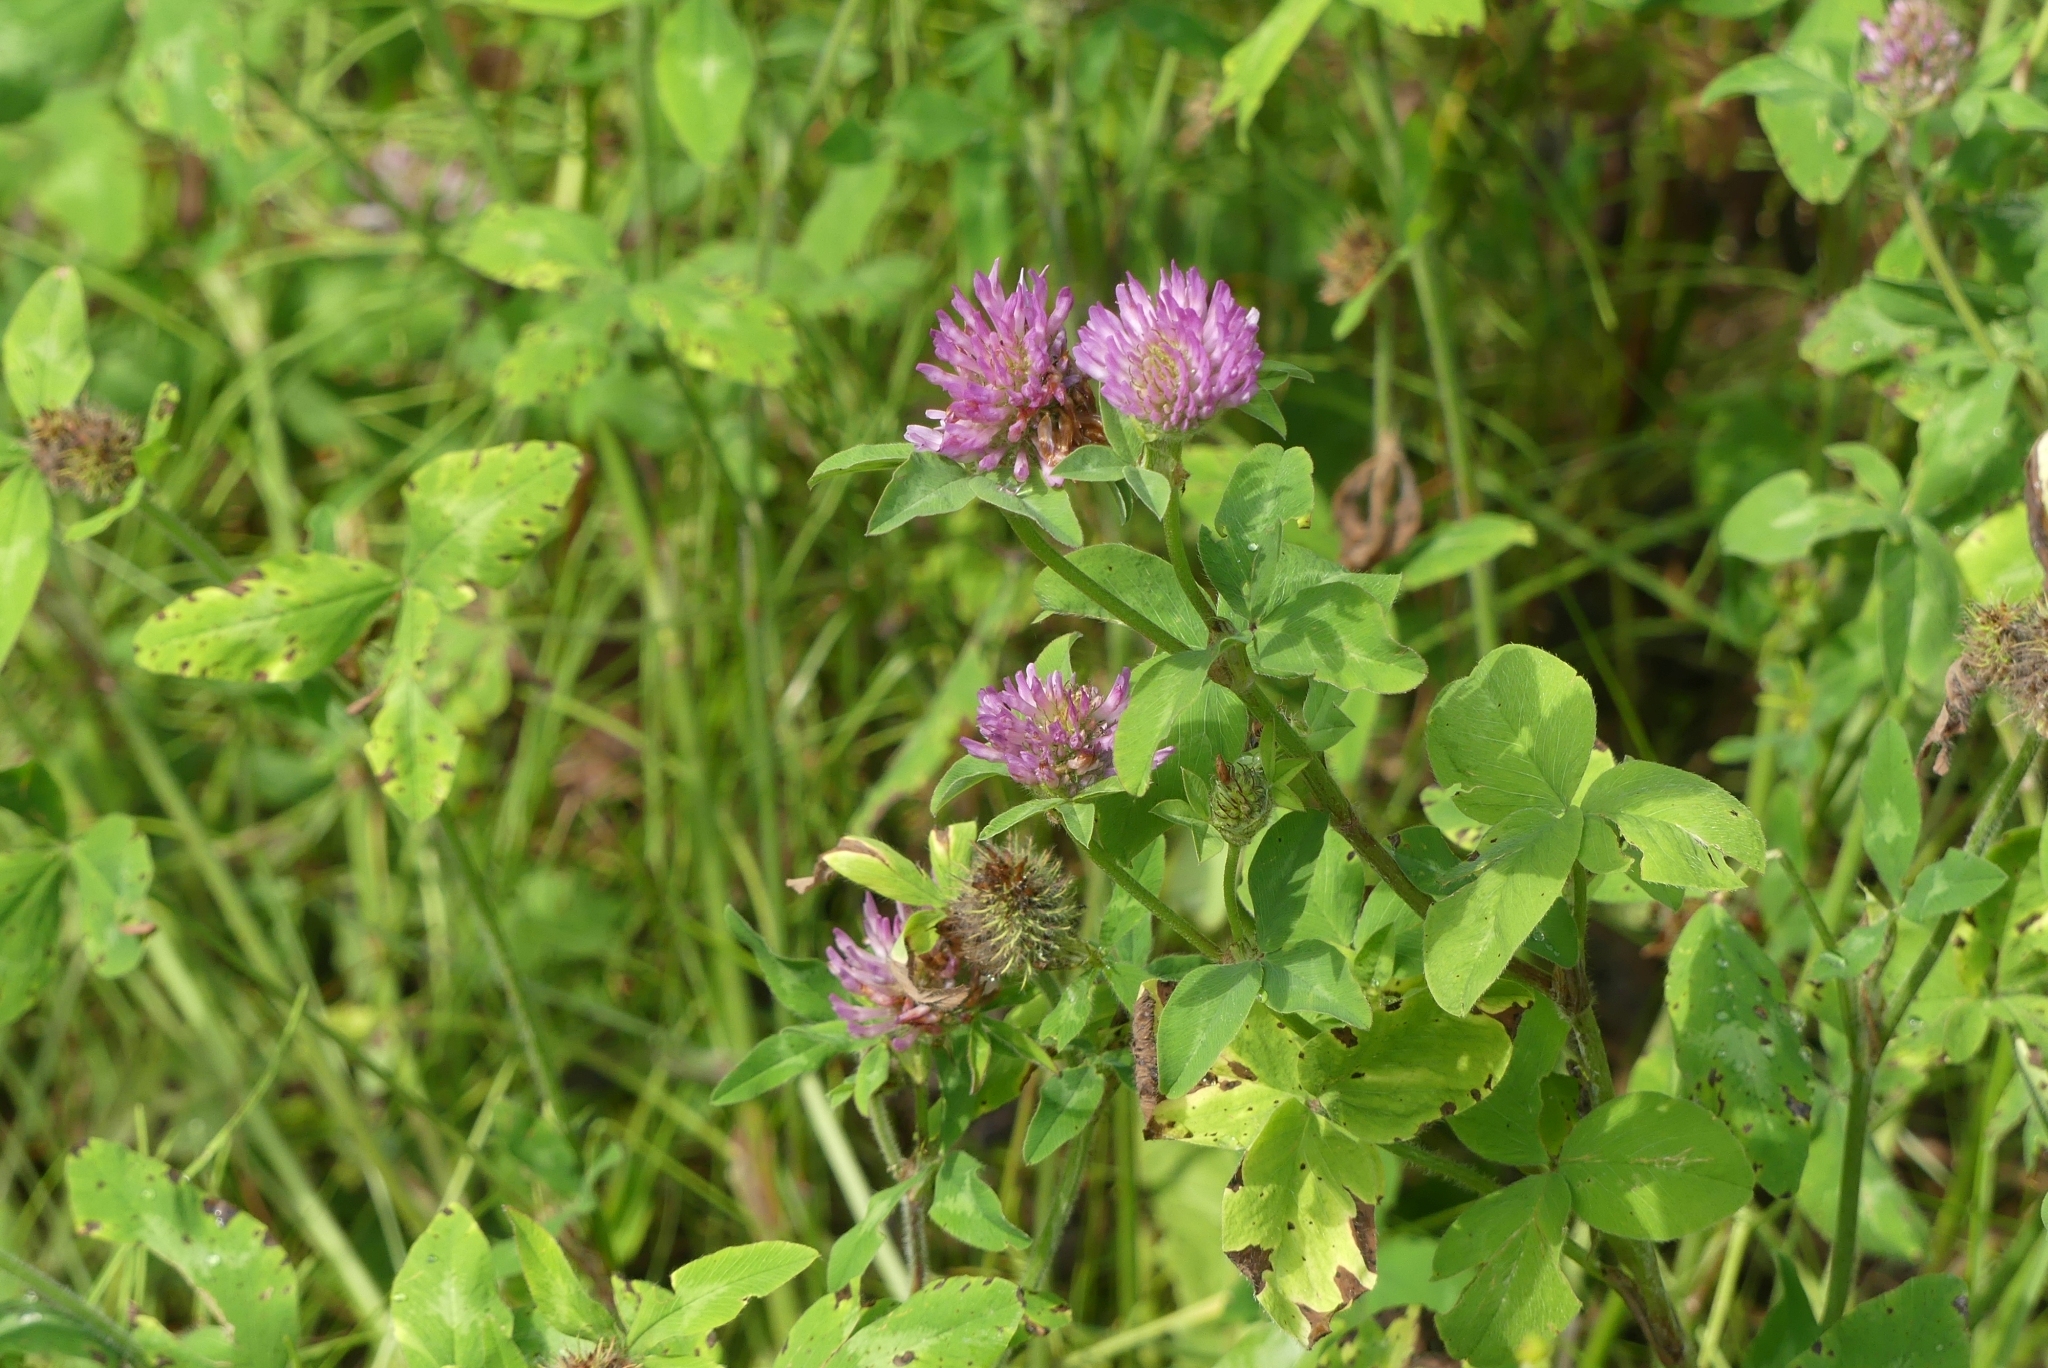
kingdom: Plantae
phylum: Tracheophyta
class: Magnoliopsida
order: Fabales
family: Fabaceae
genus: Trifolium
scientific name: Trifolium pratense
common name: Red clover
